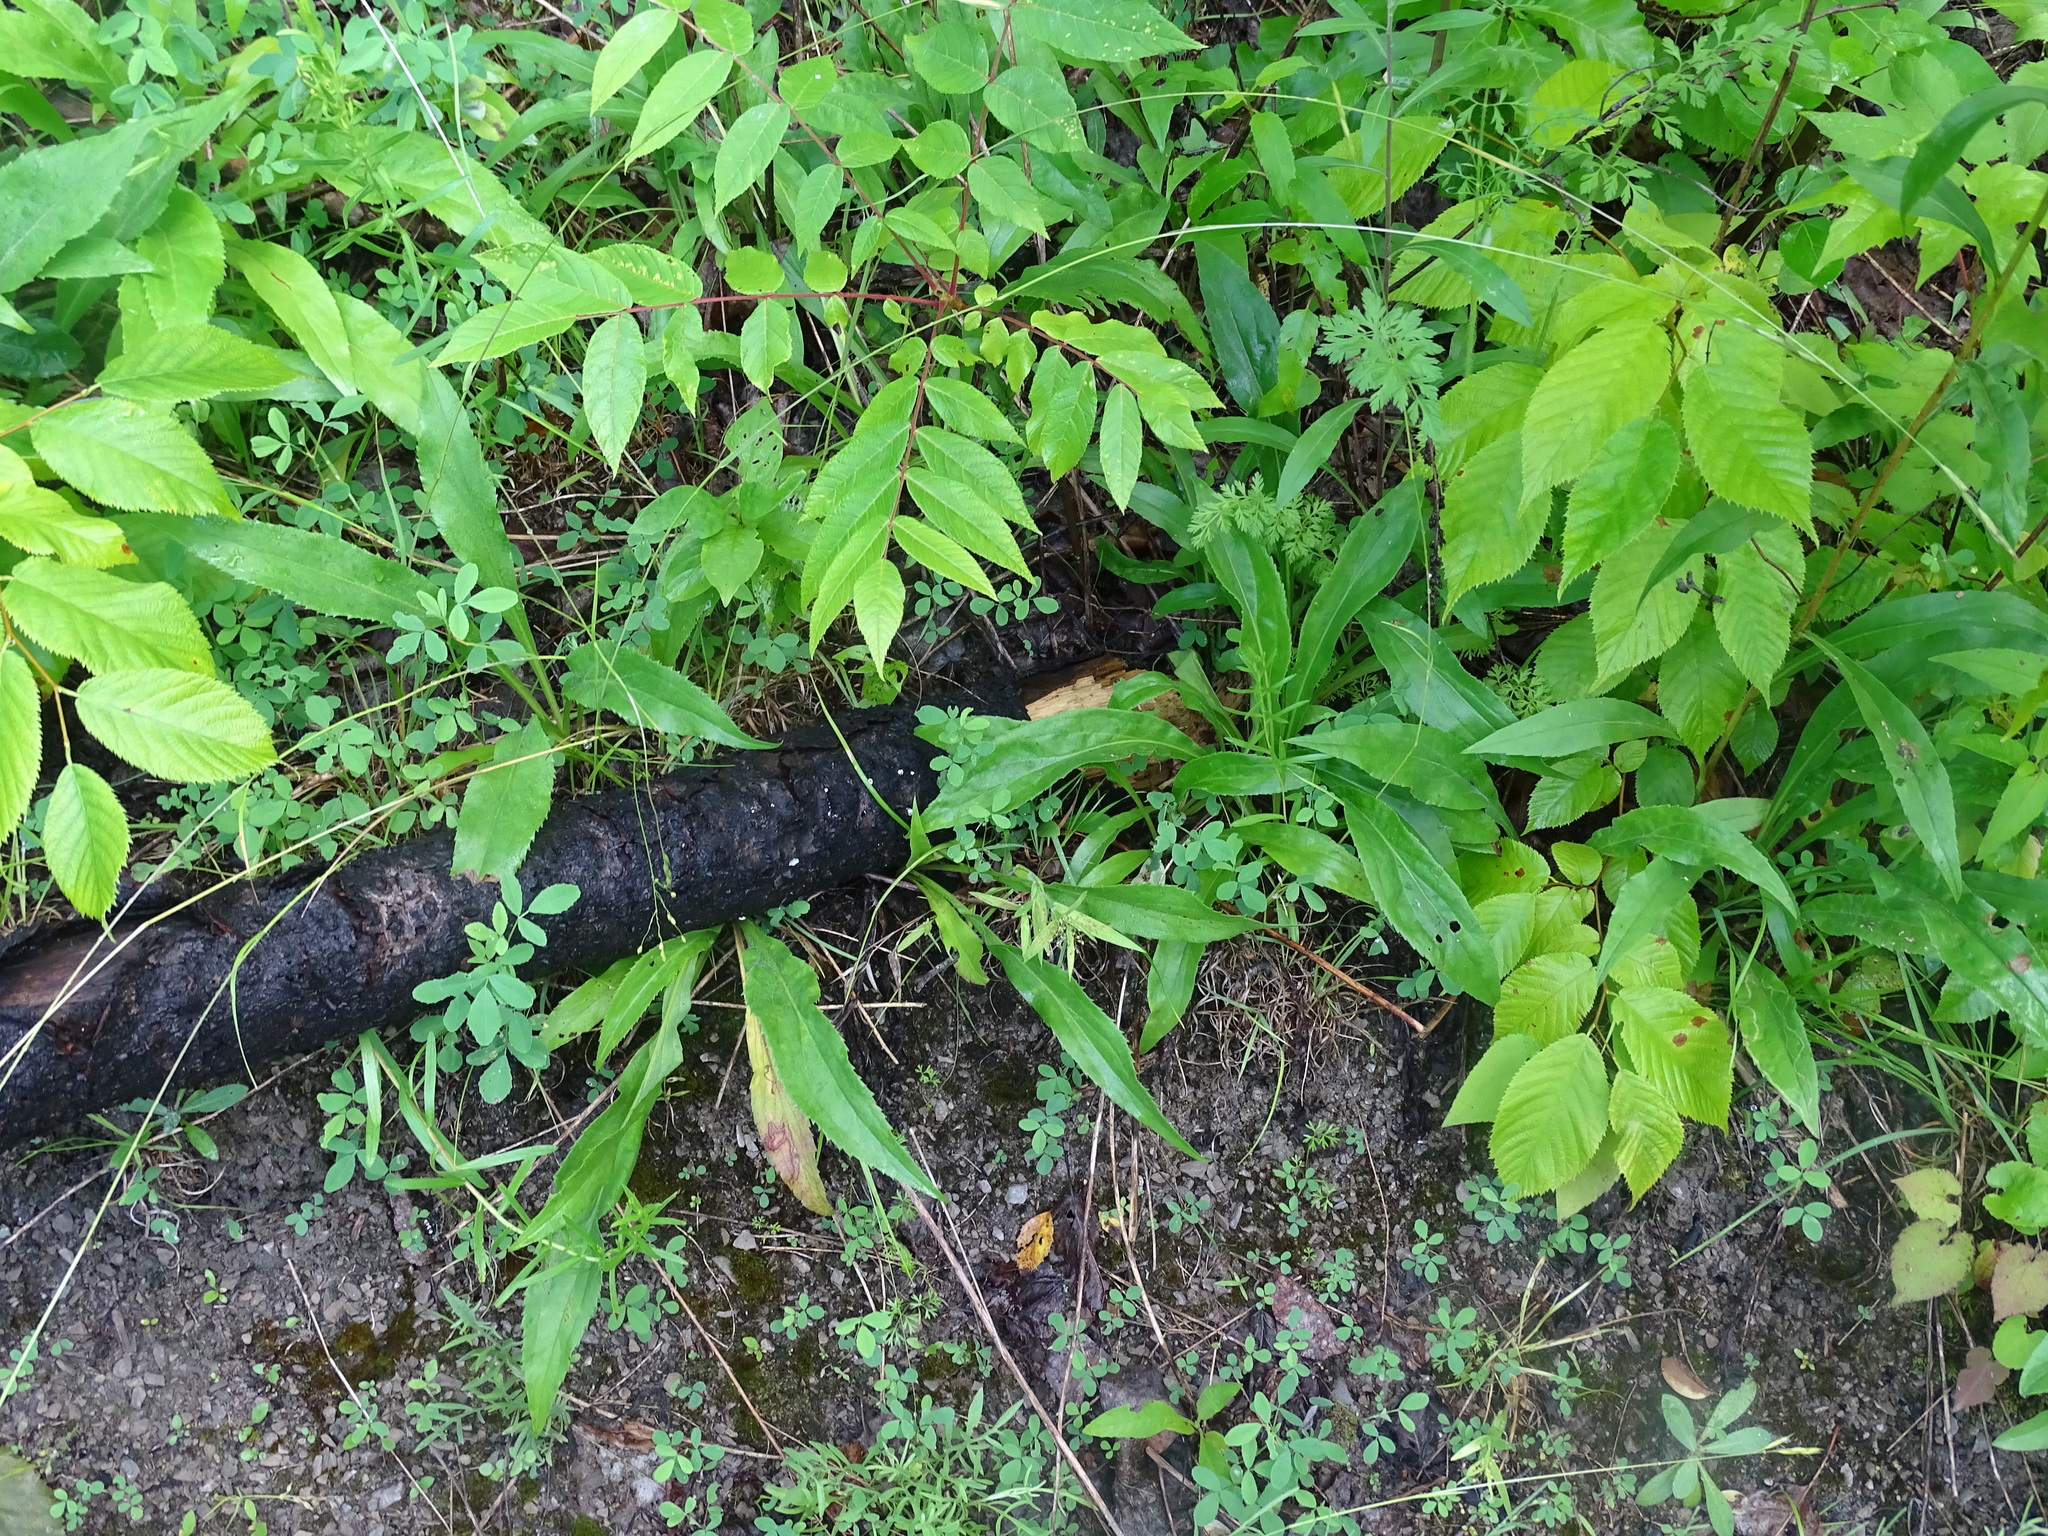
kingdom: Plantae
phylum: Tracheophyta
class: Magnoliopsida
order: Asterales
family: Asteraceae
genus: Solidago
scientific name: Solidago juncea
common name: Early goldenrod
